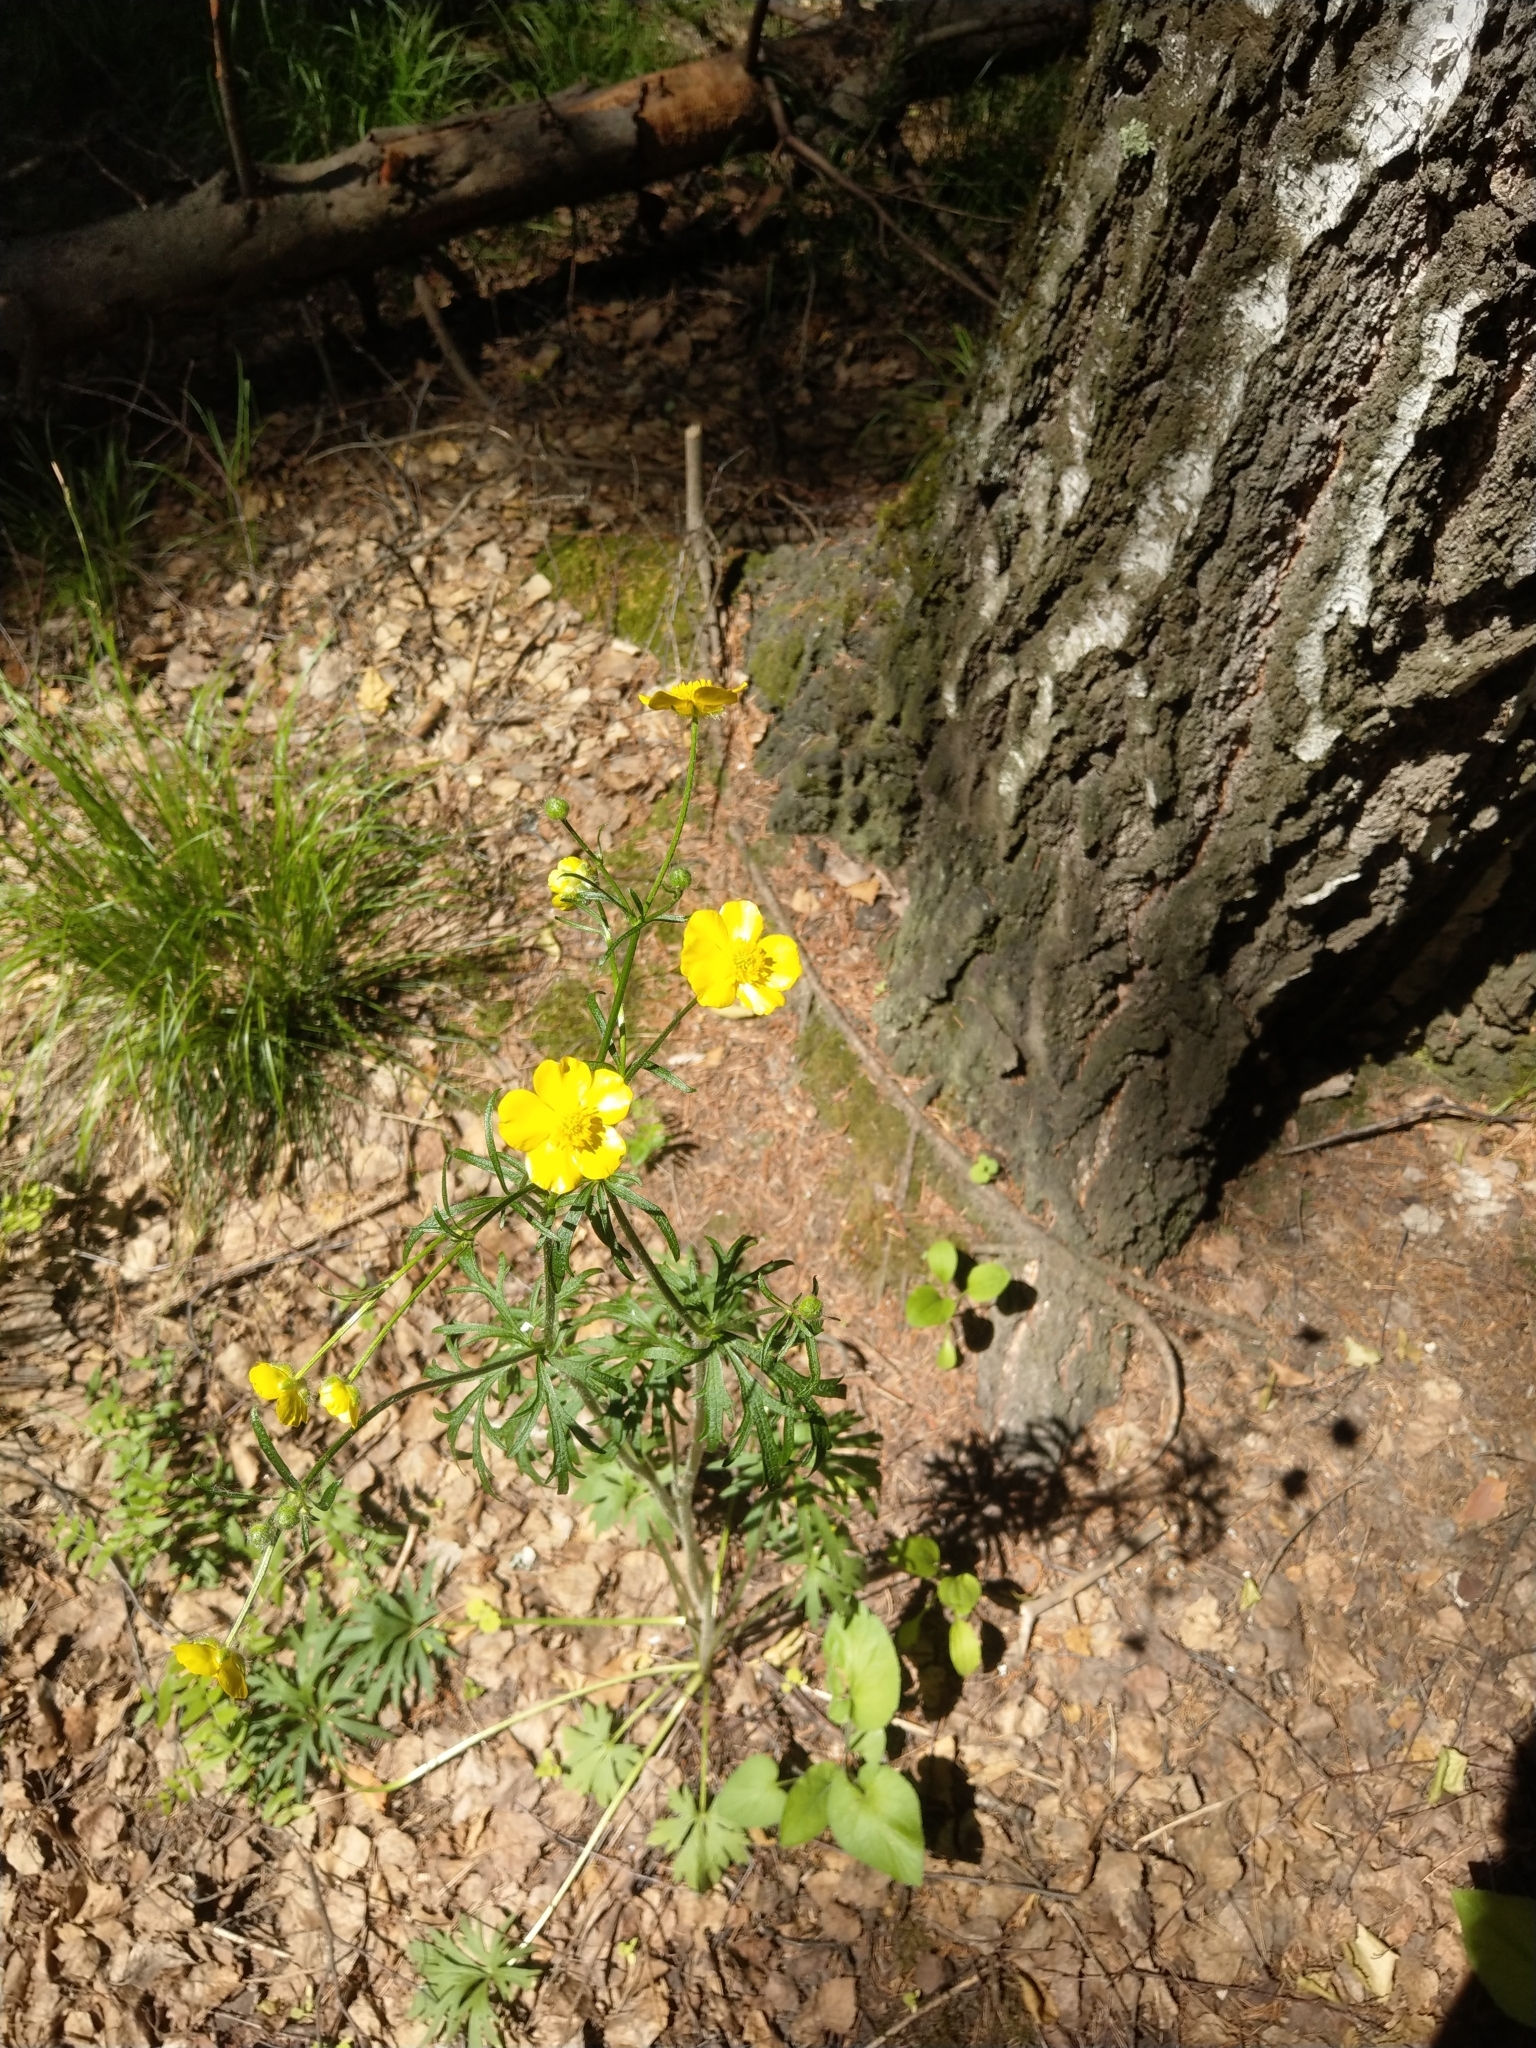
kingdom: Plantae
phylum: Tracheophyta
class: Magnoliopsida
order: Ranunculales
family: Ranunculaceae
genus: Ranunculus
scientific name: Ranunculus polyanthemos
